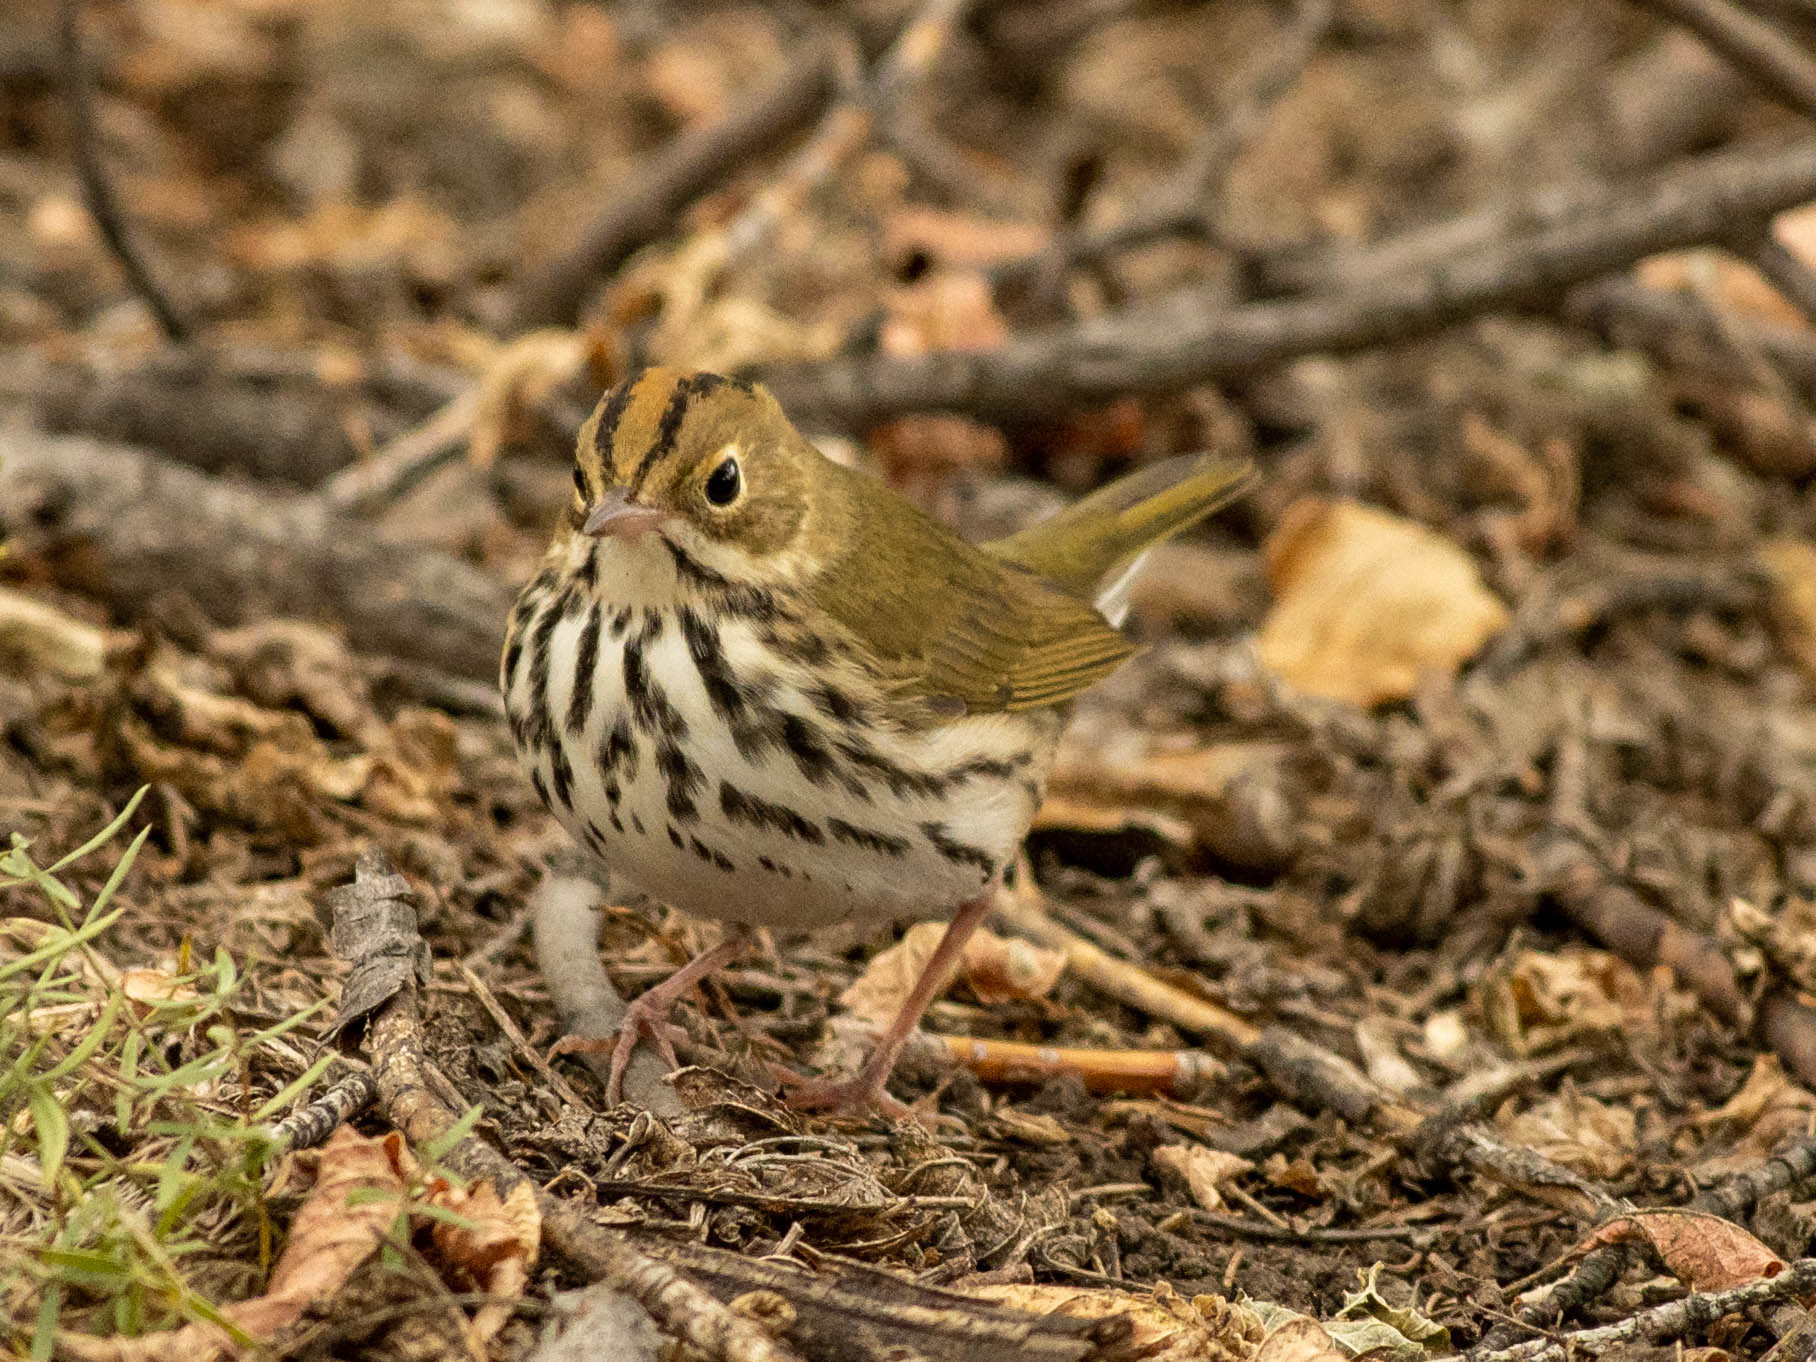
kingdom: Animalia
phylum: Chordata
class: Aves
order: Passeriformes
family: Parulidae
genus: Seiurus
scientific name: Seiurus aurocapilla
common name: Ovenbird
